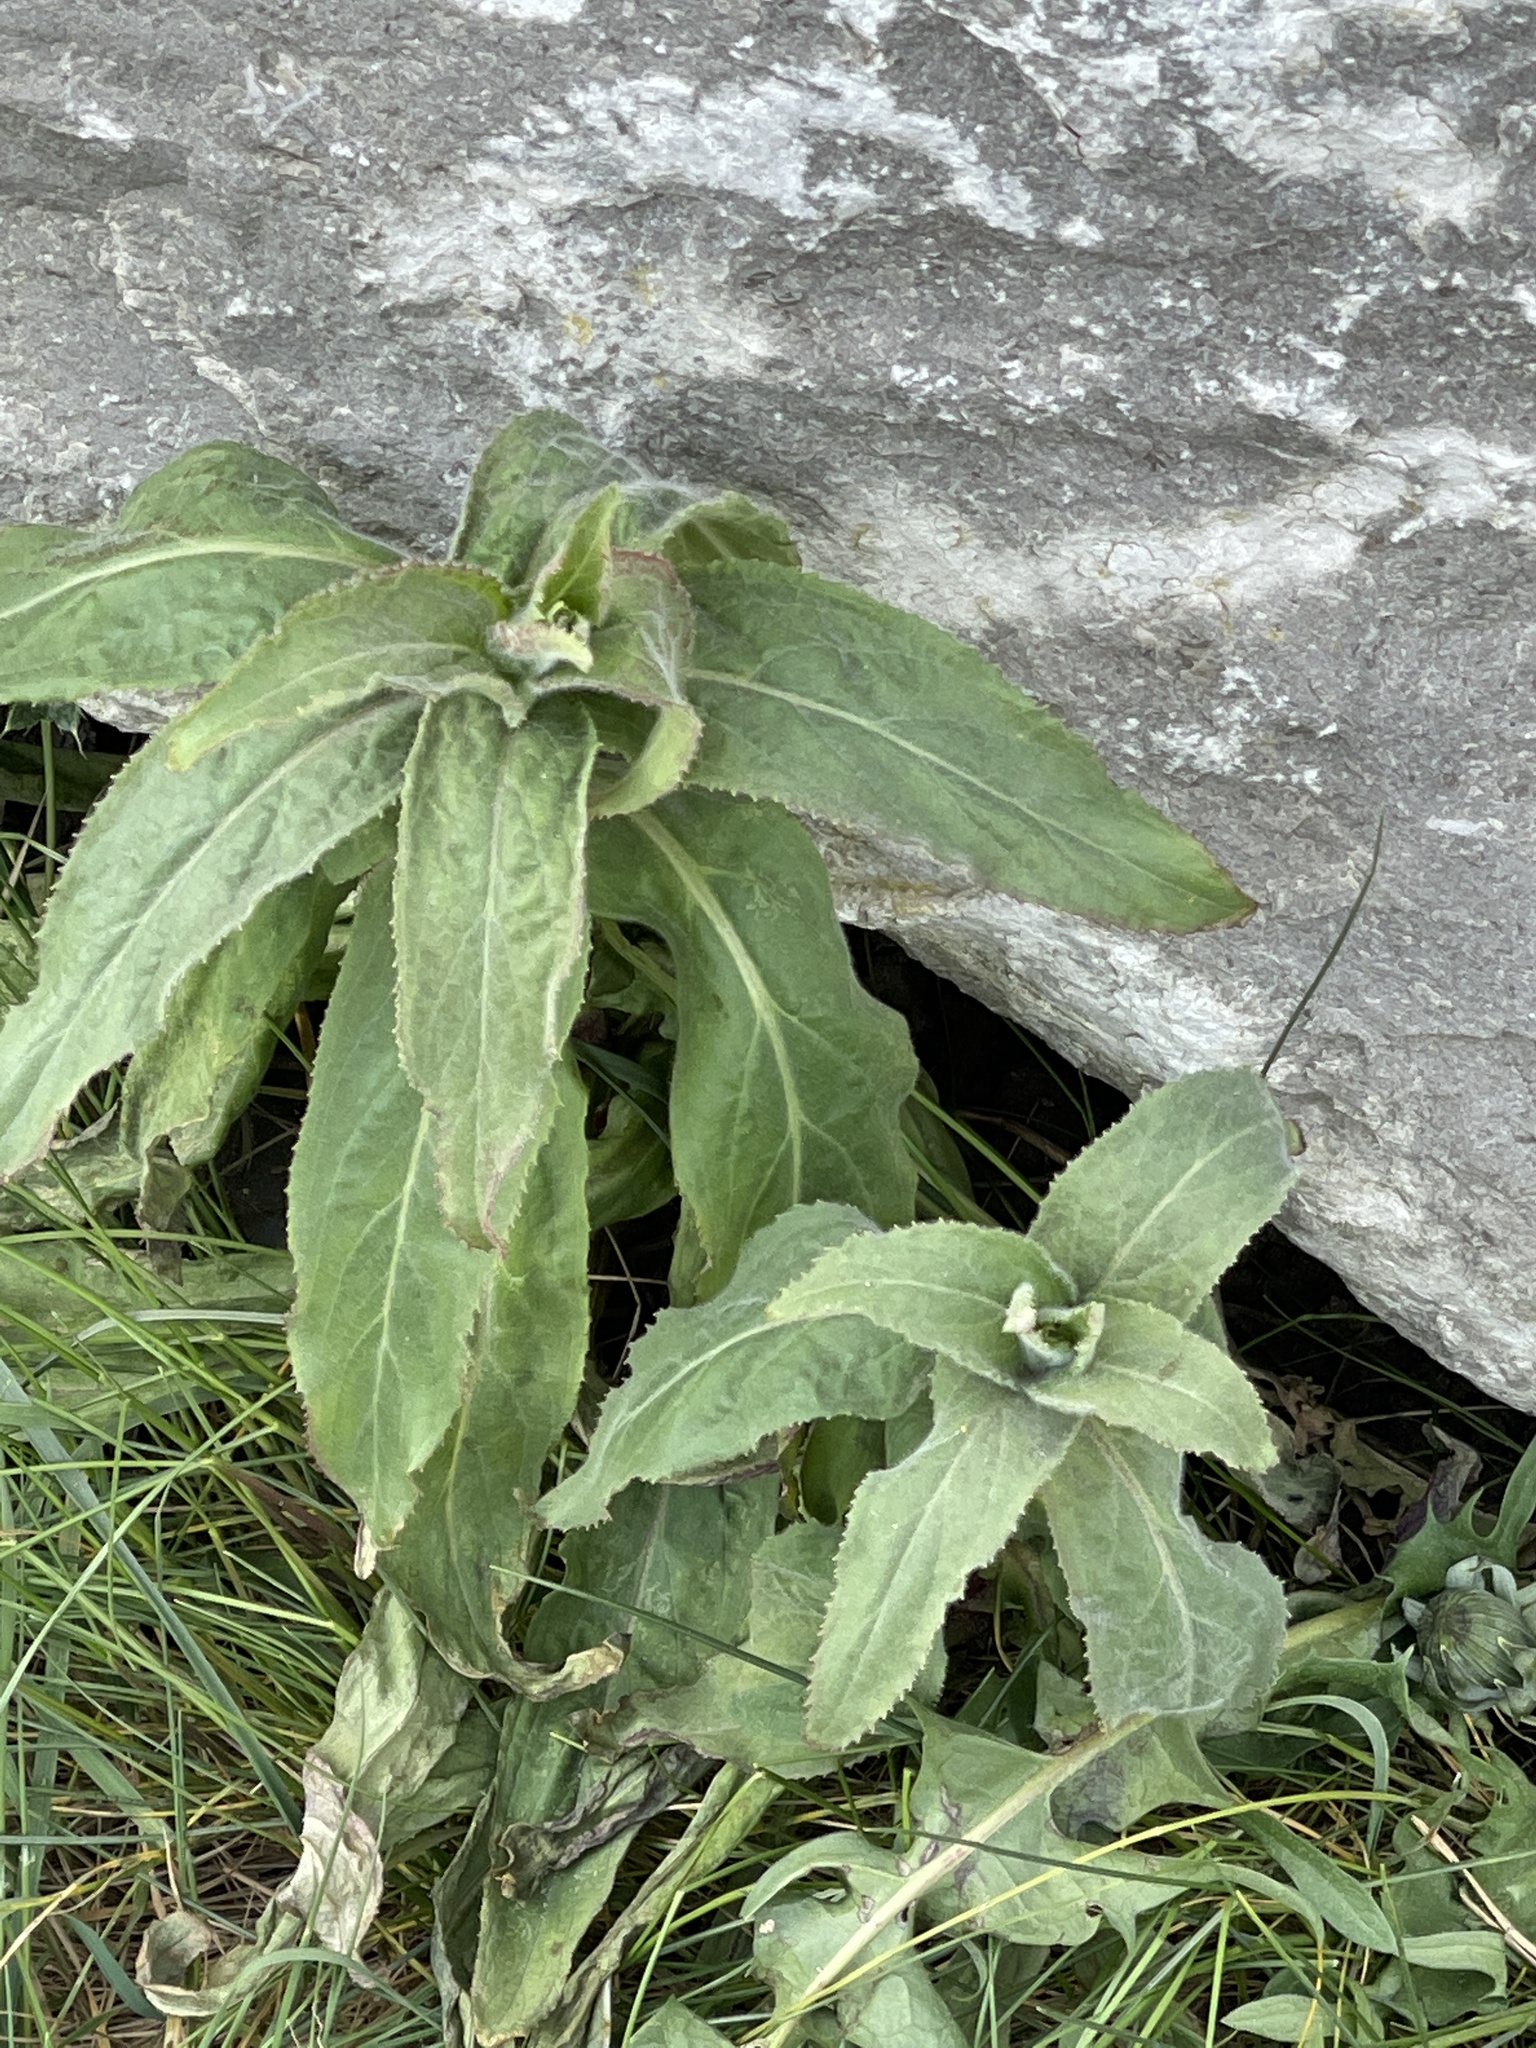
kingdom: Plantae
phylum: Tracheophyta
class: Magnoliopsida
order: Myrtales
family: Onagraceae
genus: Epilobium
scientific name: Epilobium hirsutum
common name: Great willowherb
